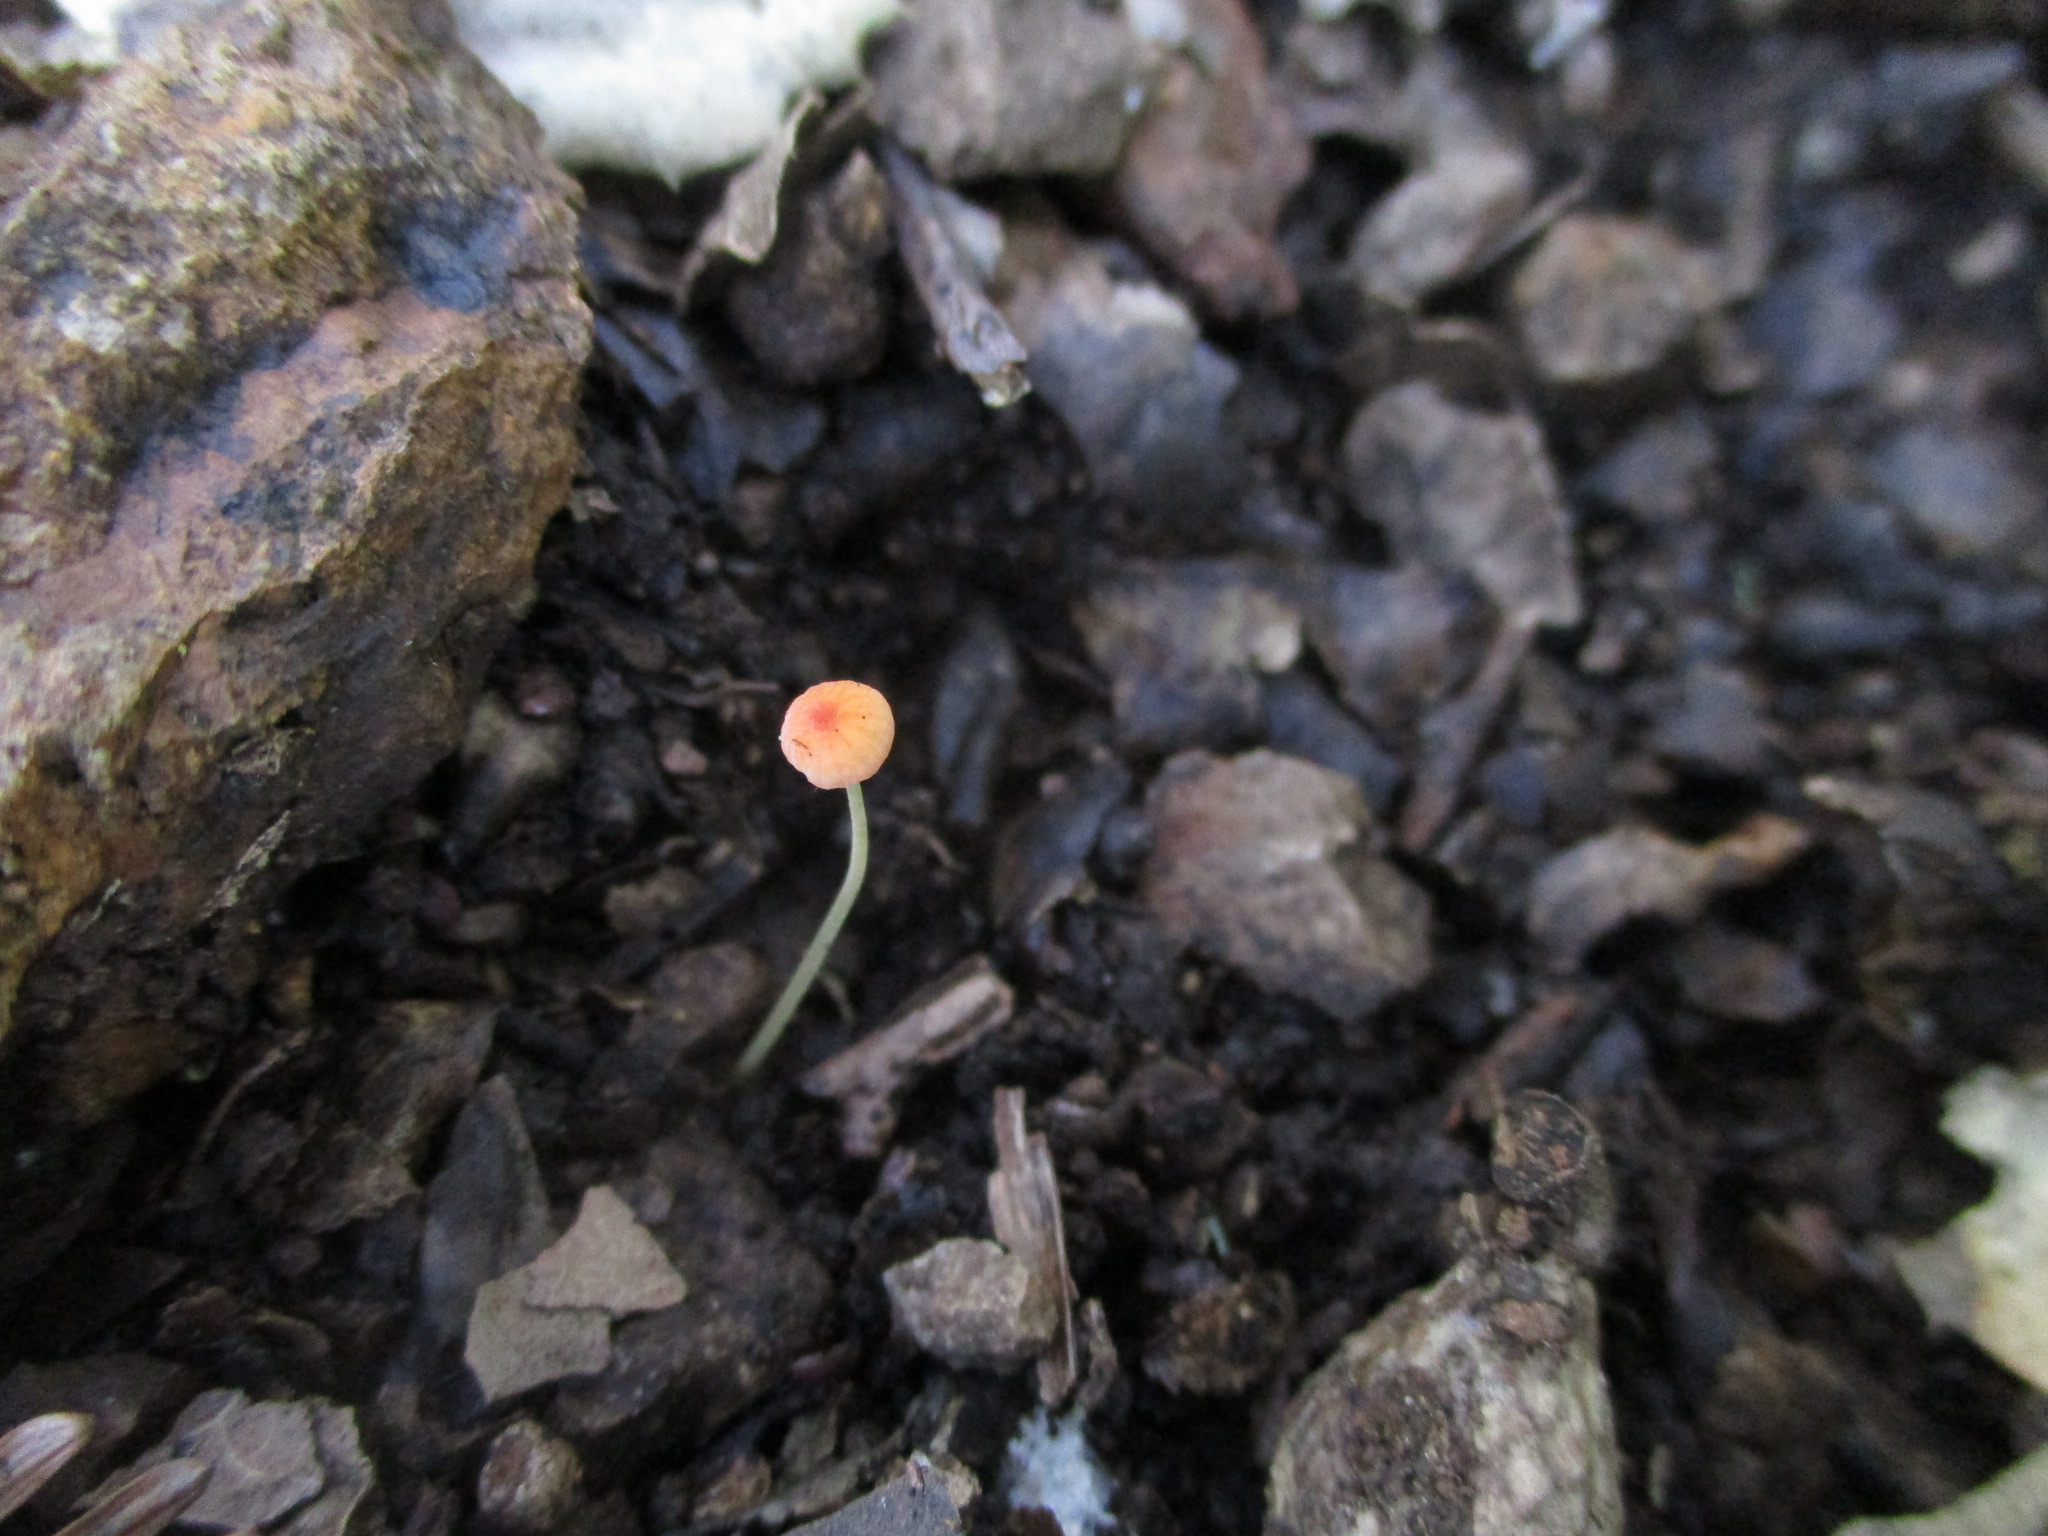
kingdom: Fungi
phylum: Basidiomycota
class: Agaricomycetes
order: Agaricales
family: Mycenaceae
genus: Mycena
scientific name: Mycena acicula
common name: Orange bonnet
